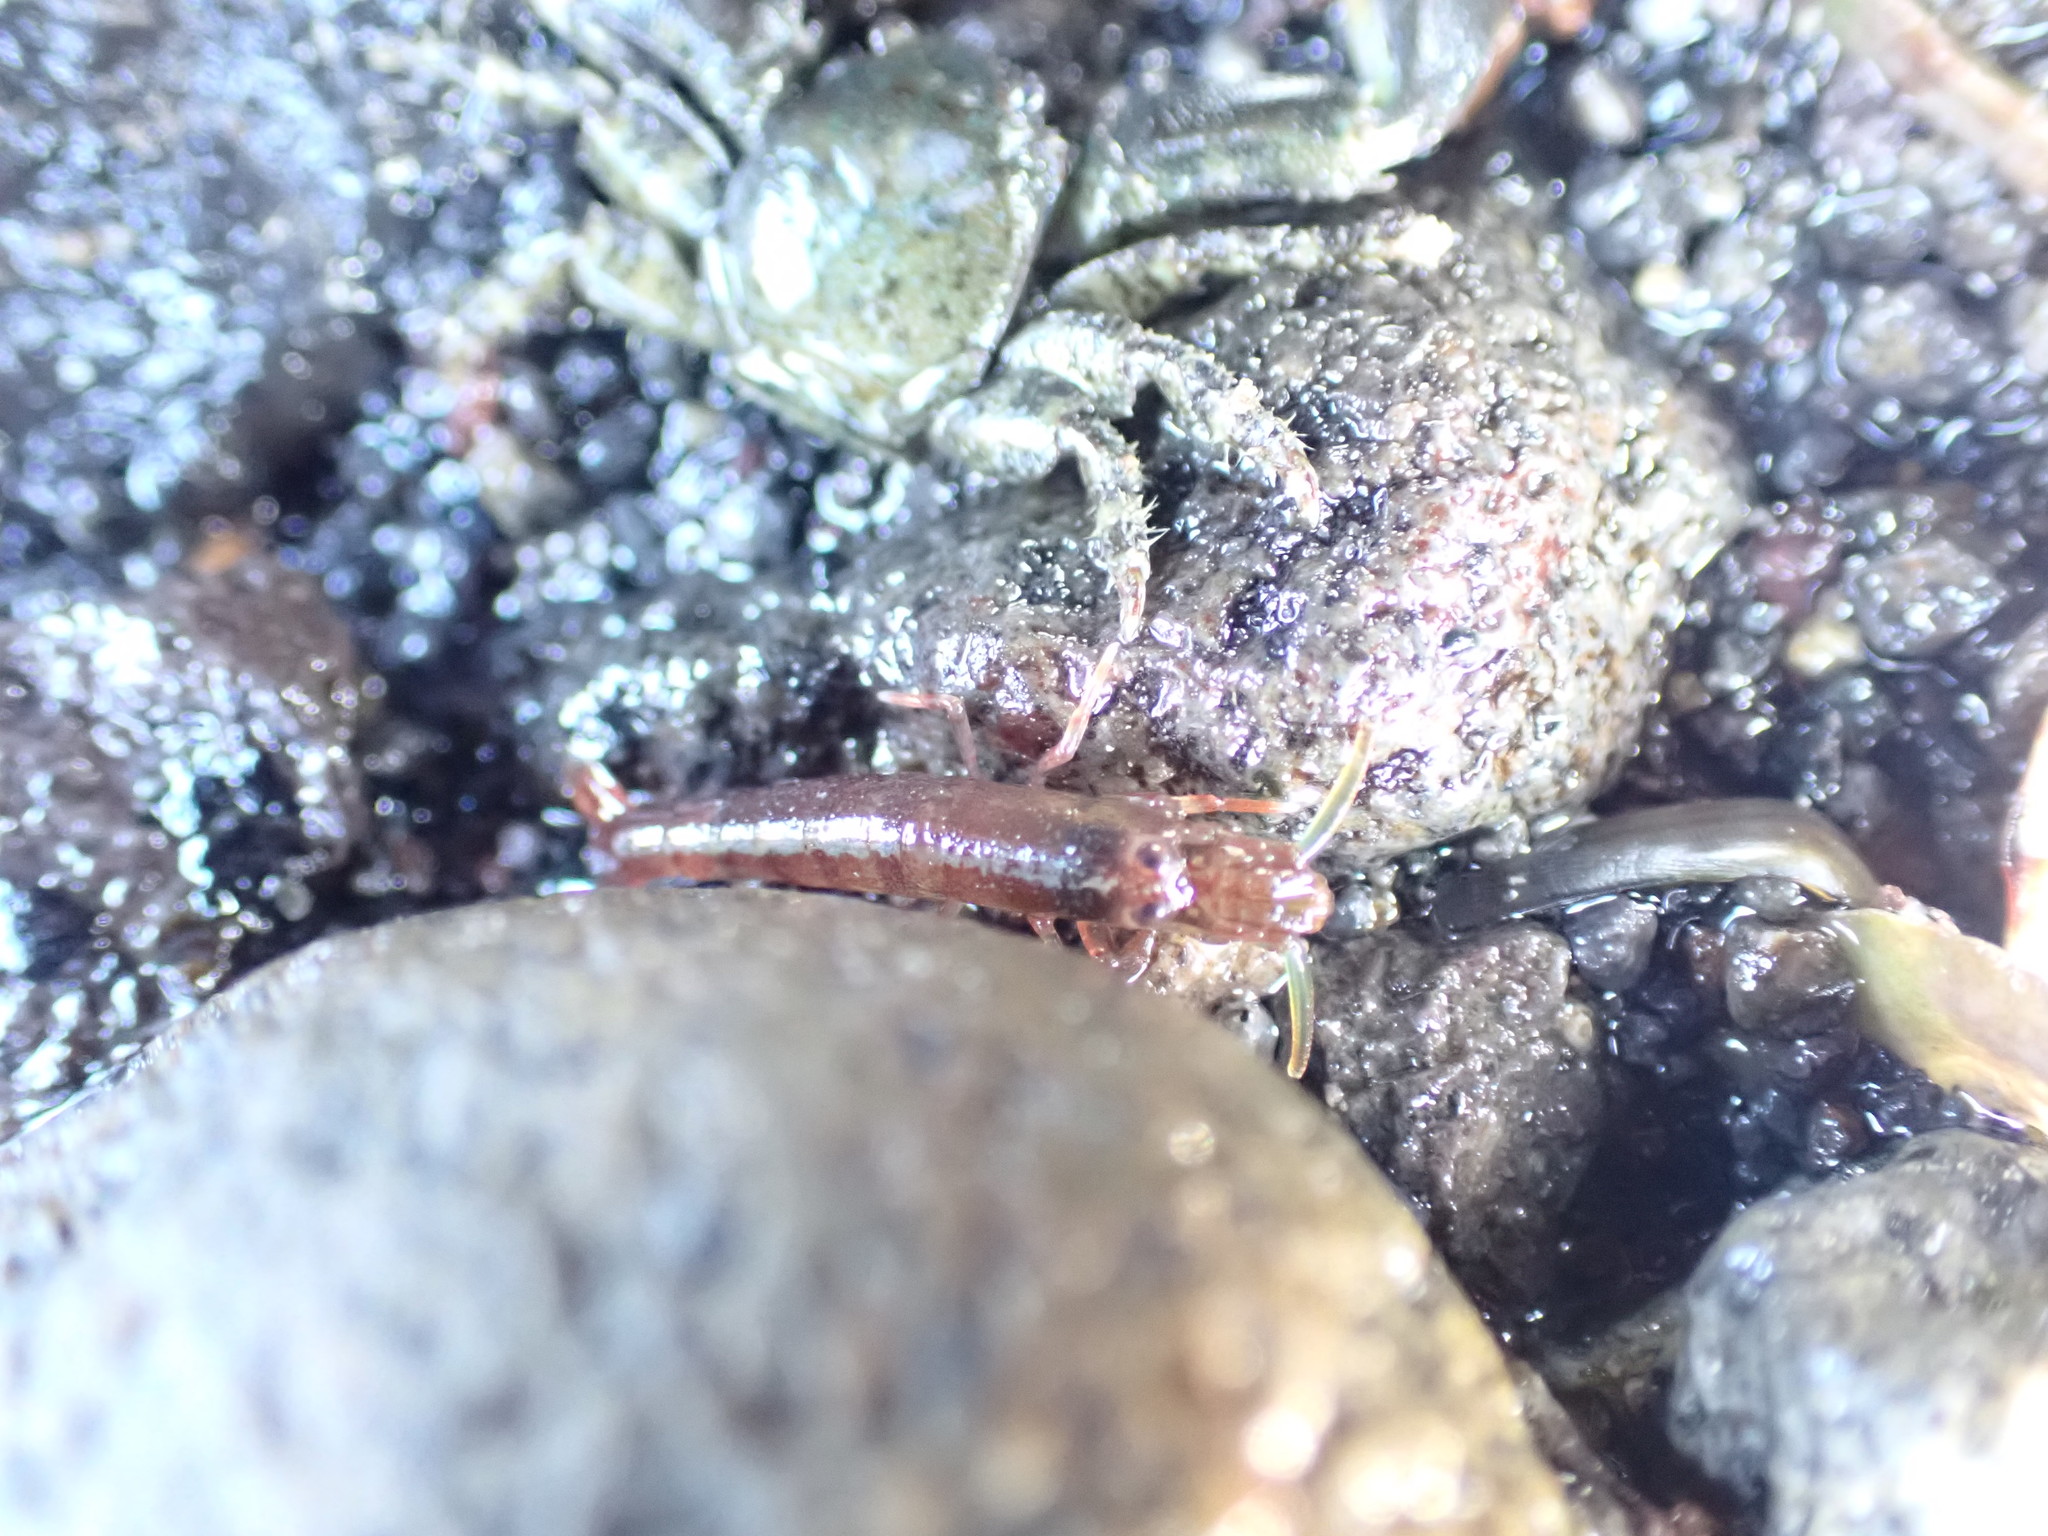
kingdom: Animalia
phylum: Arthropoda
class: Malacostraca
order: Decapoda
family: Alpheidae
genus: Betaeopsis
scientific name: Betaeopsis aequimanus
